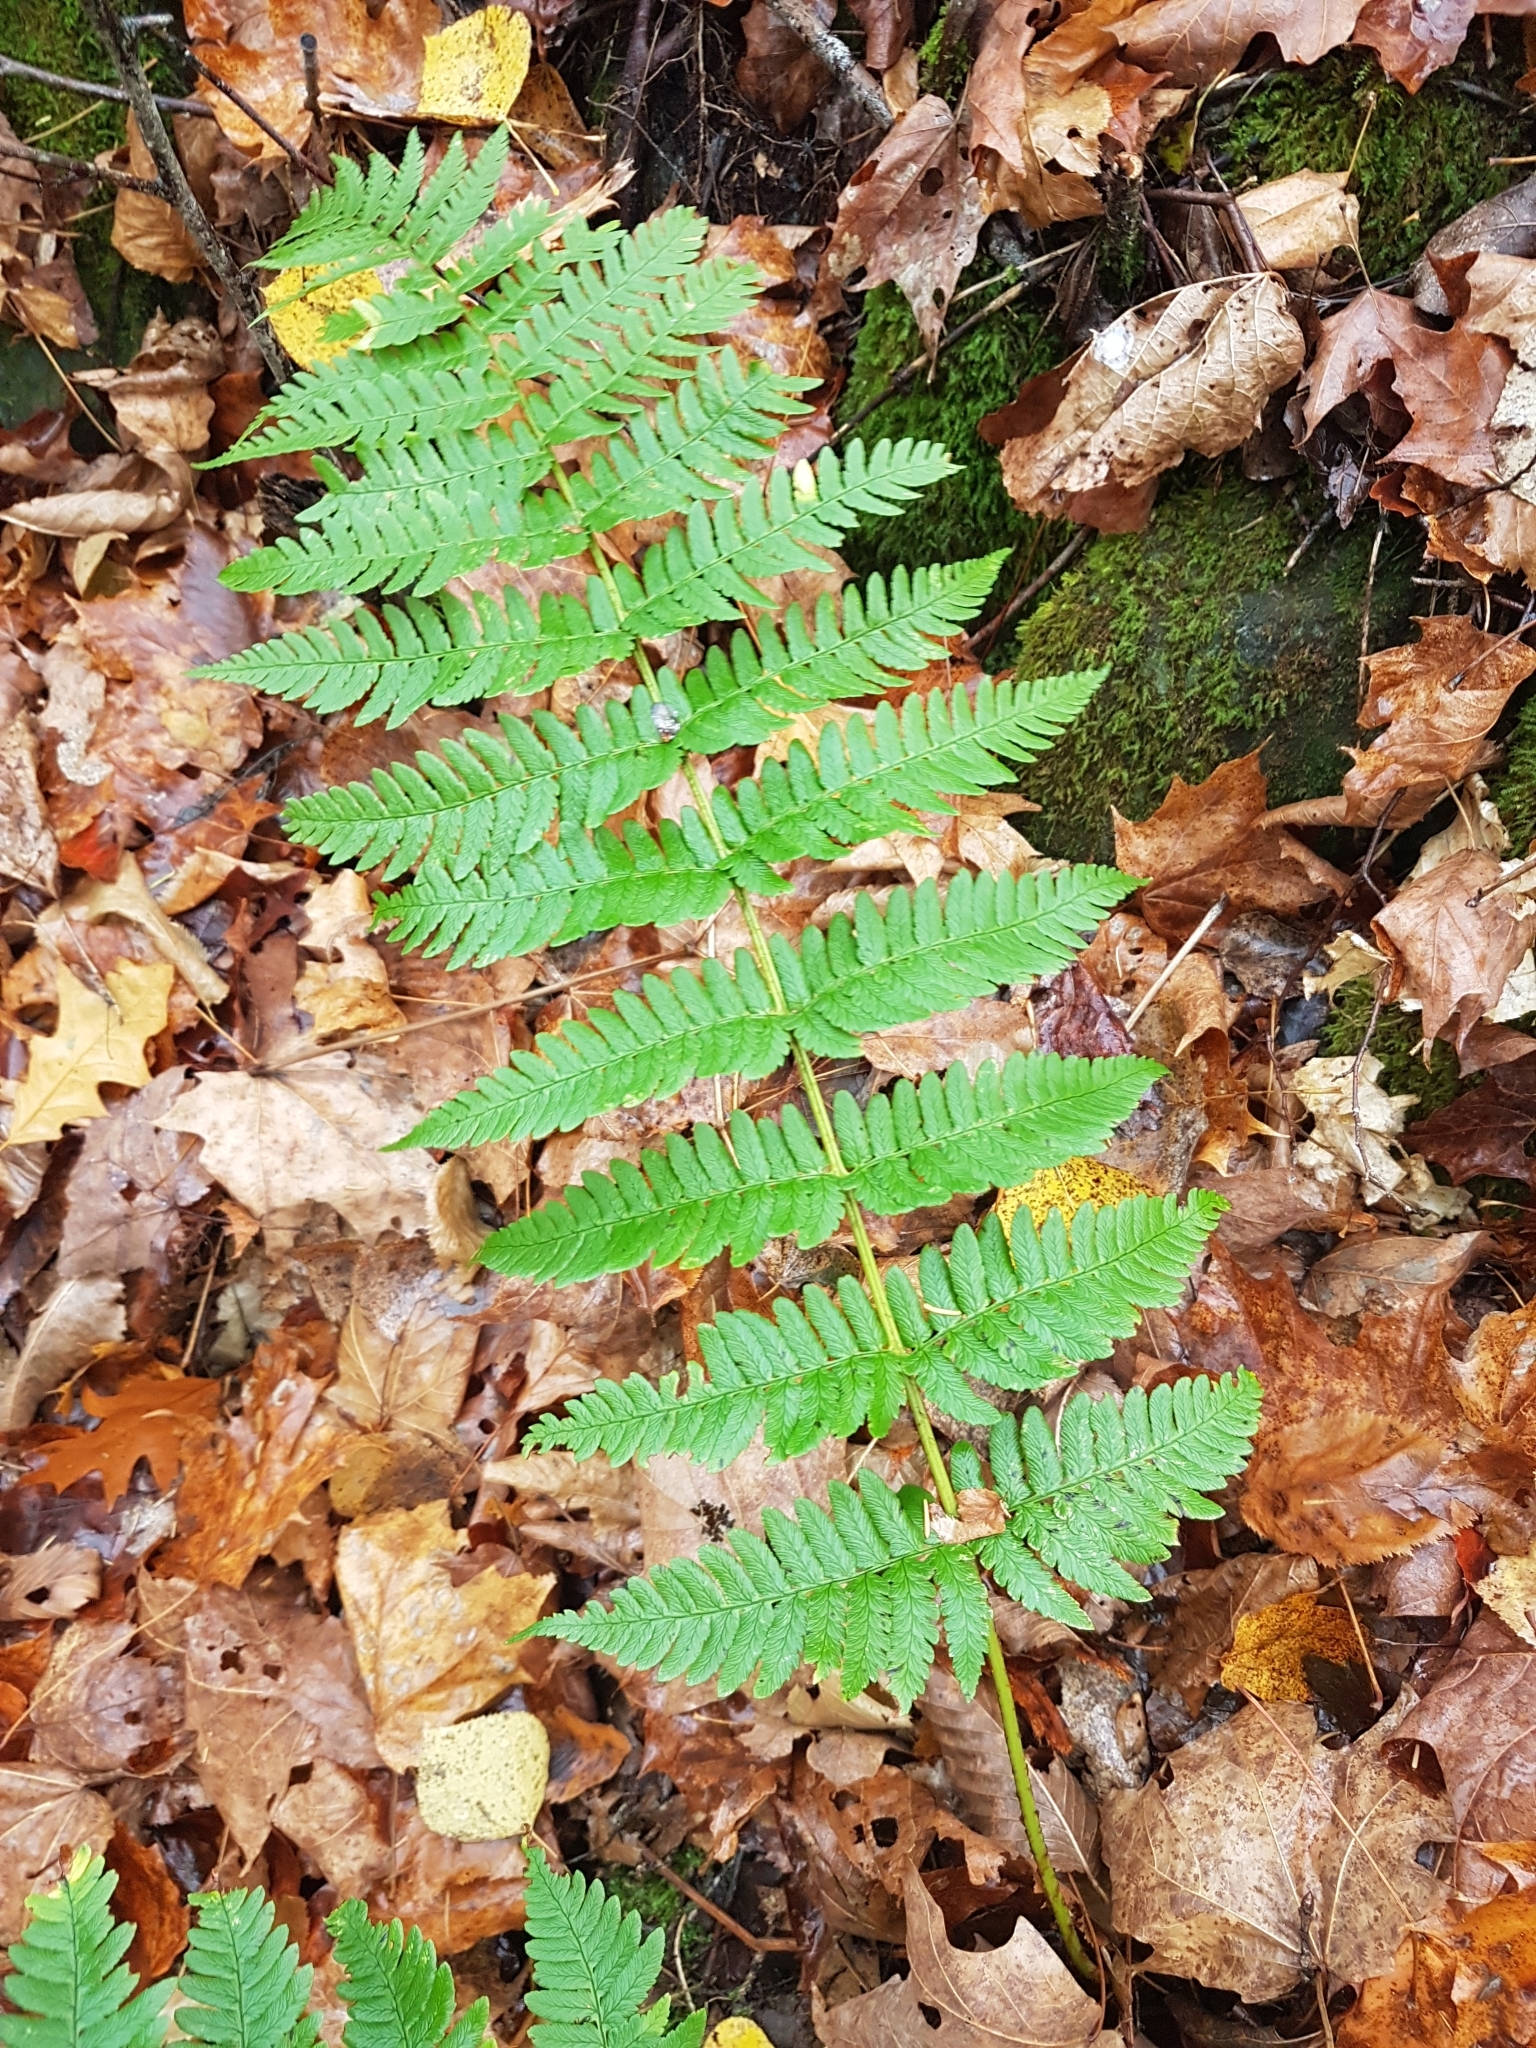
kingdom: Plantae
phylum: Tracheophyta
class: Polypodiopsida
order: Polypodiales
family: Dryopteridaceae
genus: Dryopteris
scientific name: Dryopteris marginalis
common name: Marginal wood fern
